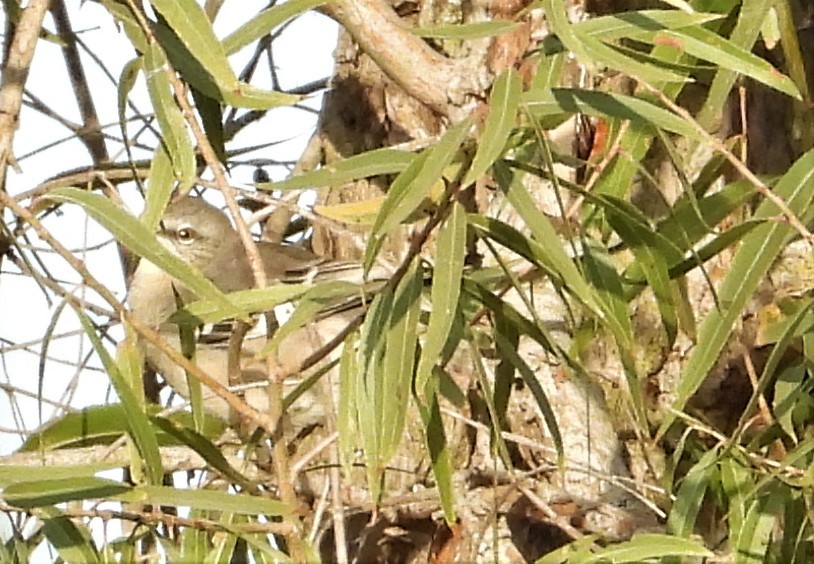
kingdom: Animalia
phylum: Chordata
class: Aves
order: Passeriformes
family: Mimidae
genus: Mimus
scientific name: Mimus polyglottos
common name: Northern mockingbird
